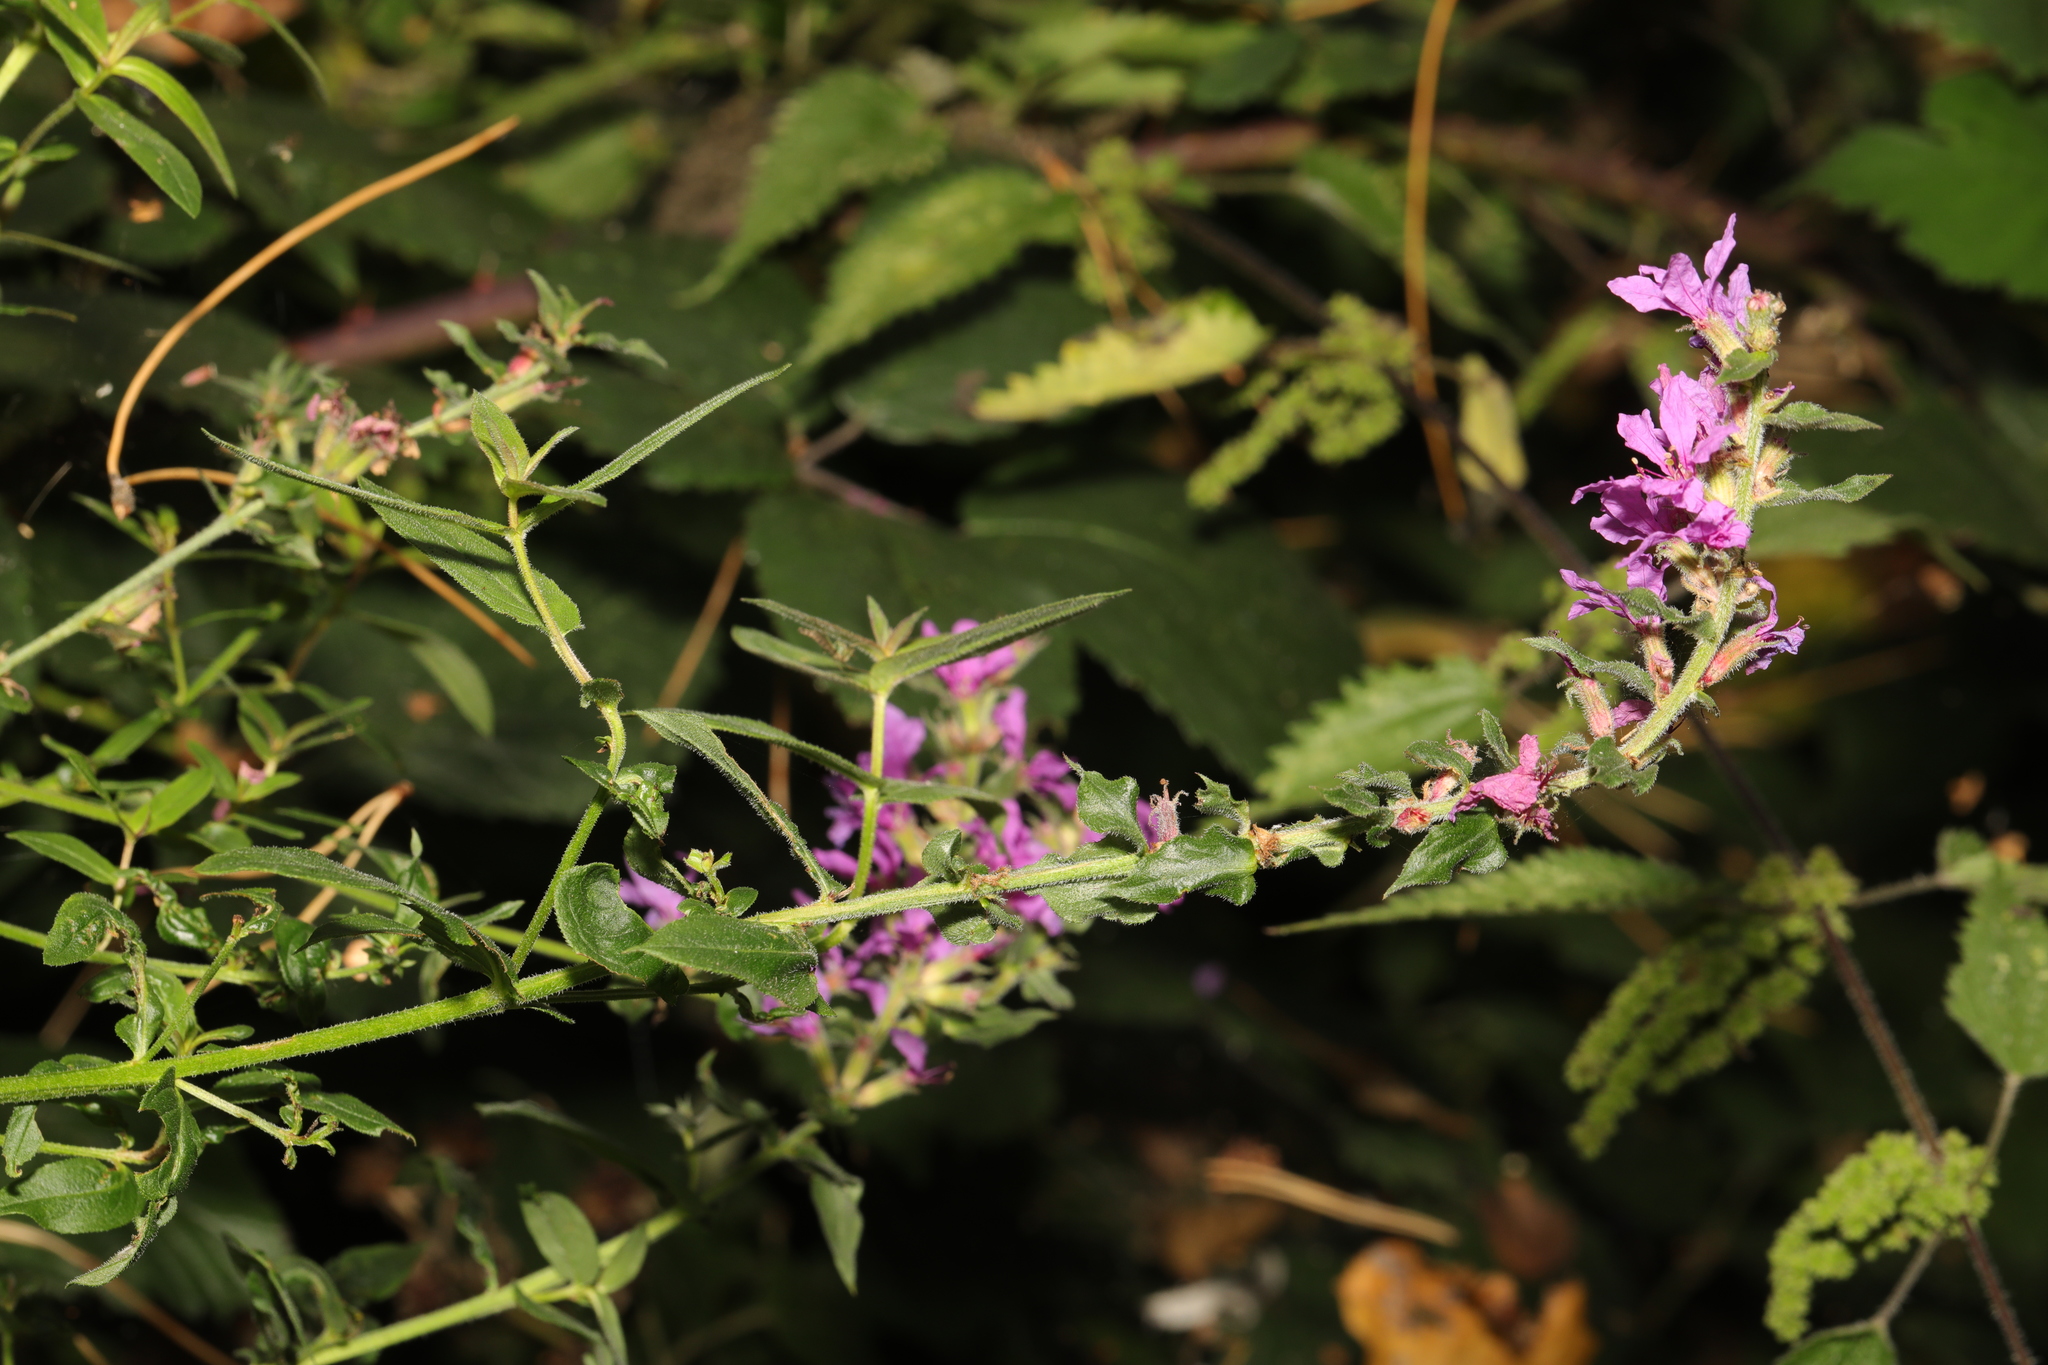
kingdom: Plantae
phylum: Tracheophyta
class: Magnoliopsida
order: Myrtales
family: Lythraceae
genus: Lythrum
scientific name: Lythrum salicaria
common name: Purple loosestrife
